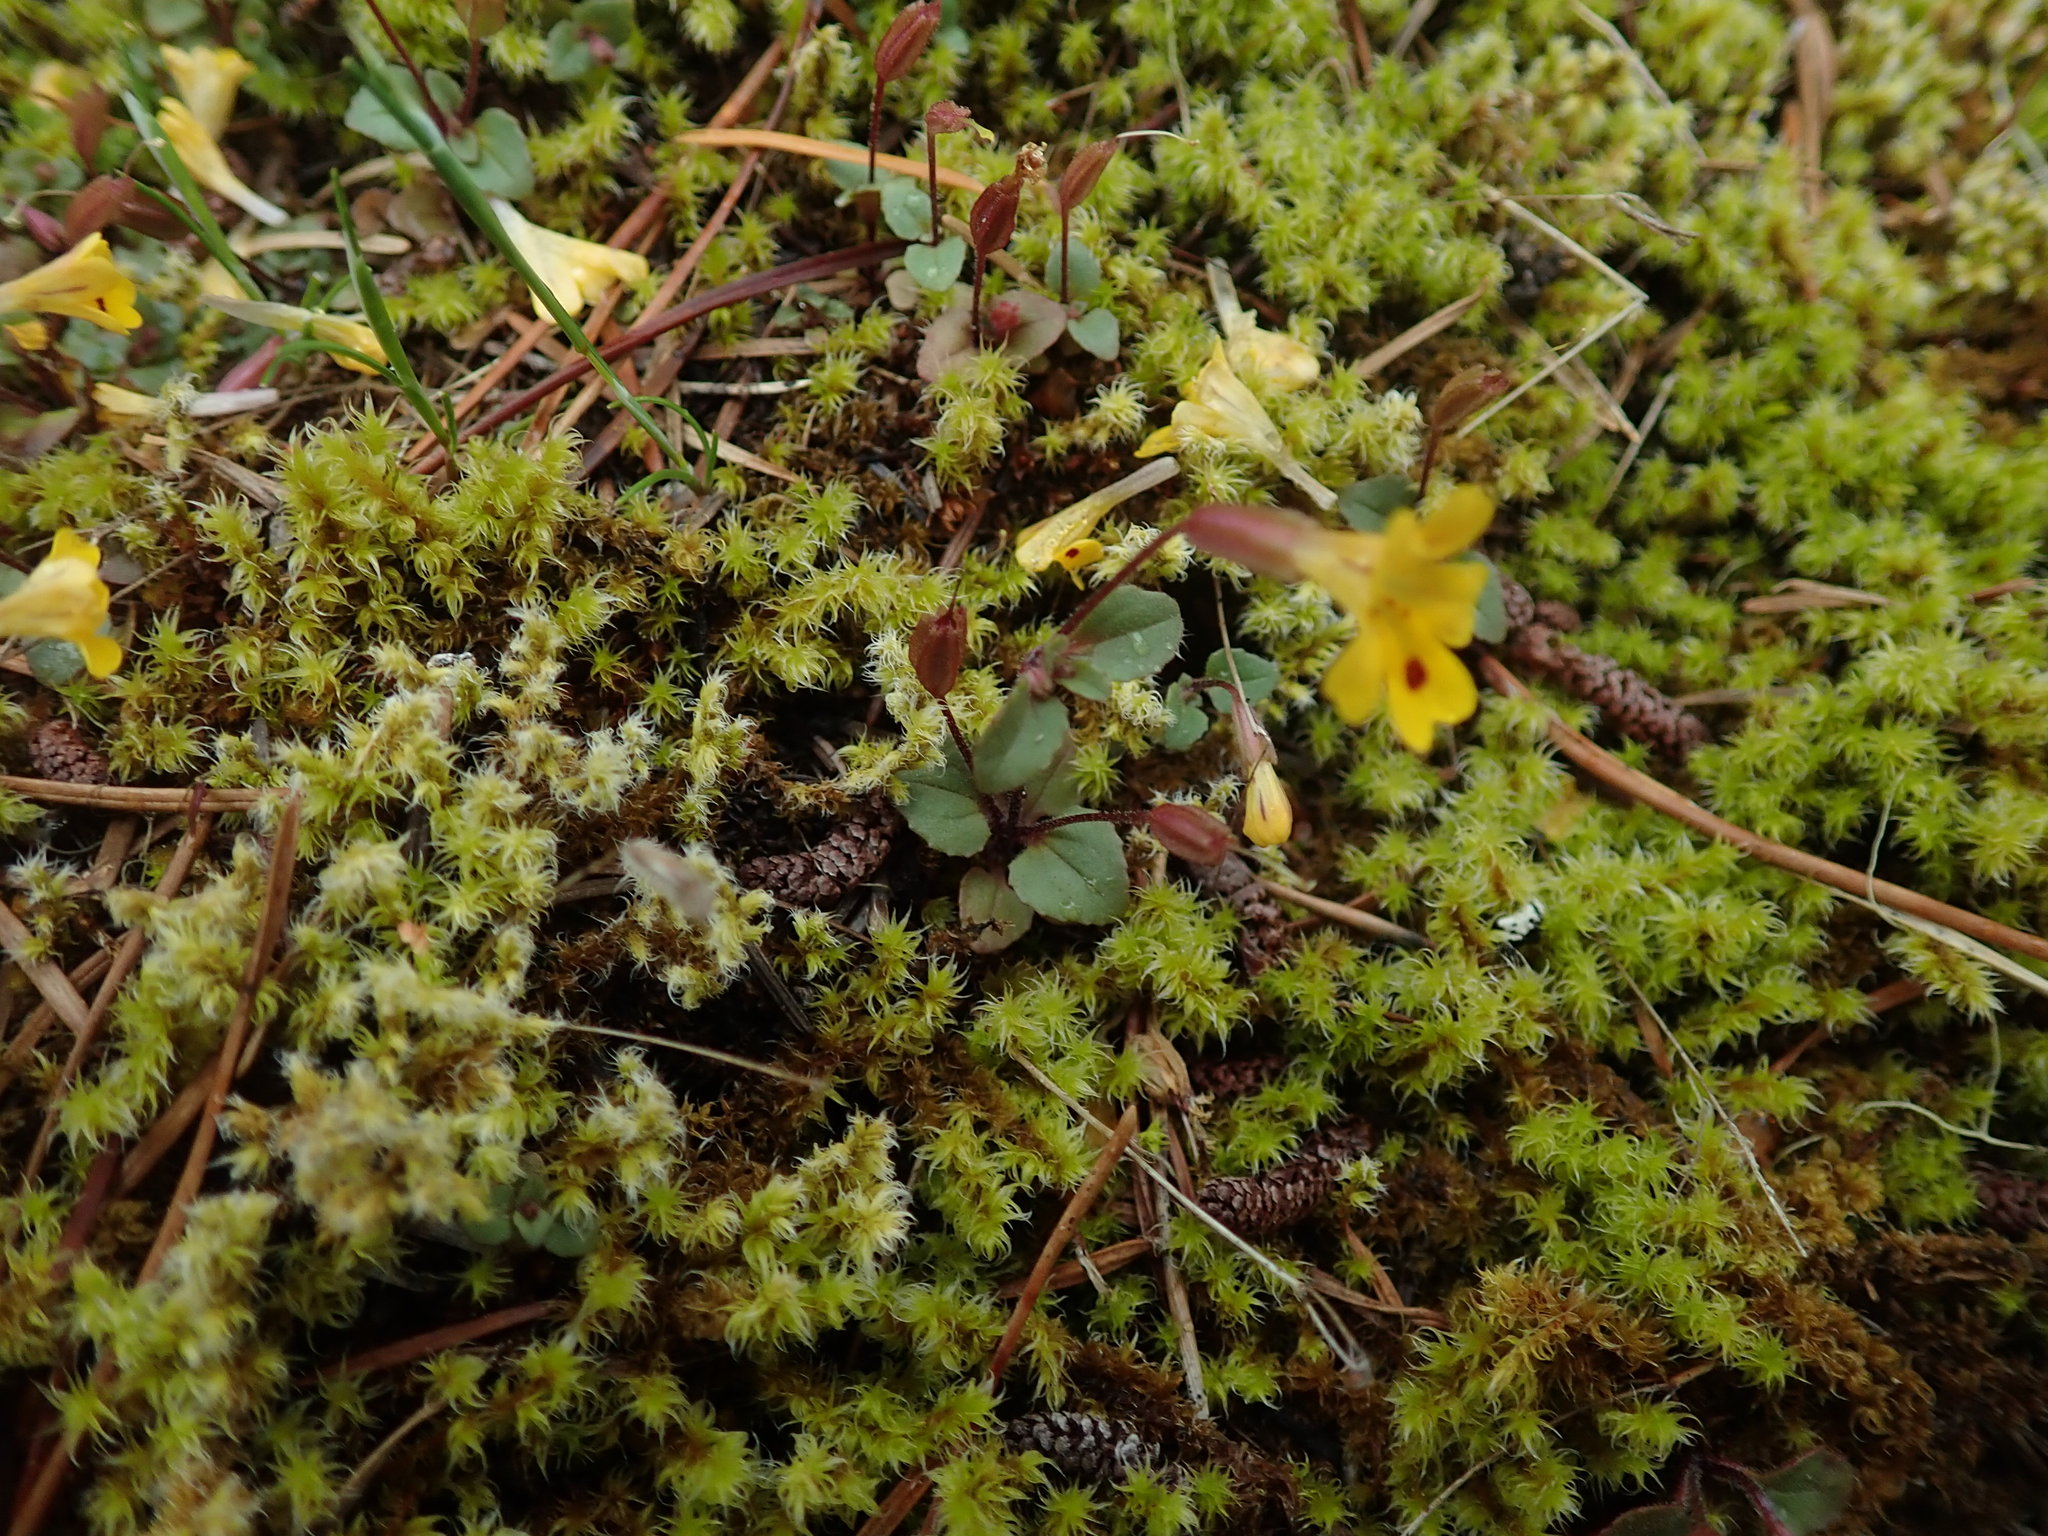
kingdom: Plantae
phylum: Tracheophyta
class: Magnoliopsida
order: Lamiales
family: Phrymaceae
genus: Erythranthe
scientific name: Erythranthe alsinoides
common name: Chickweed monkeyflower
